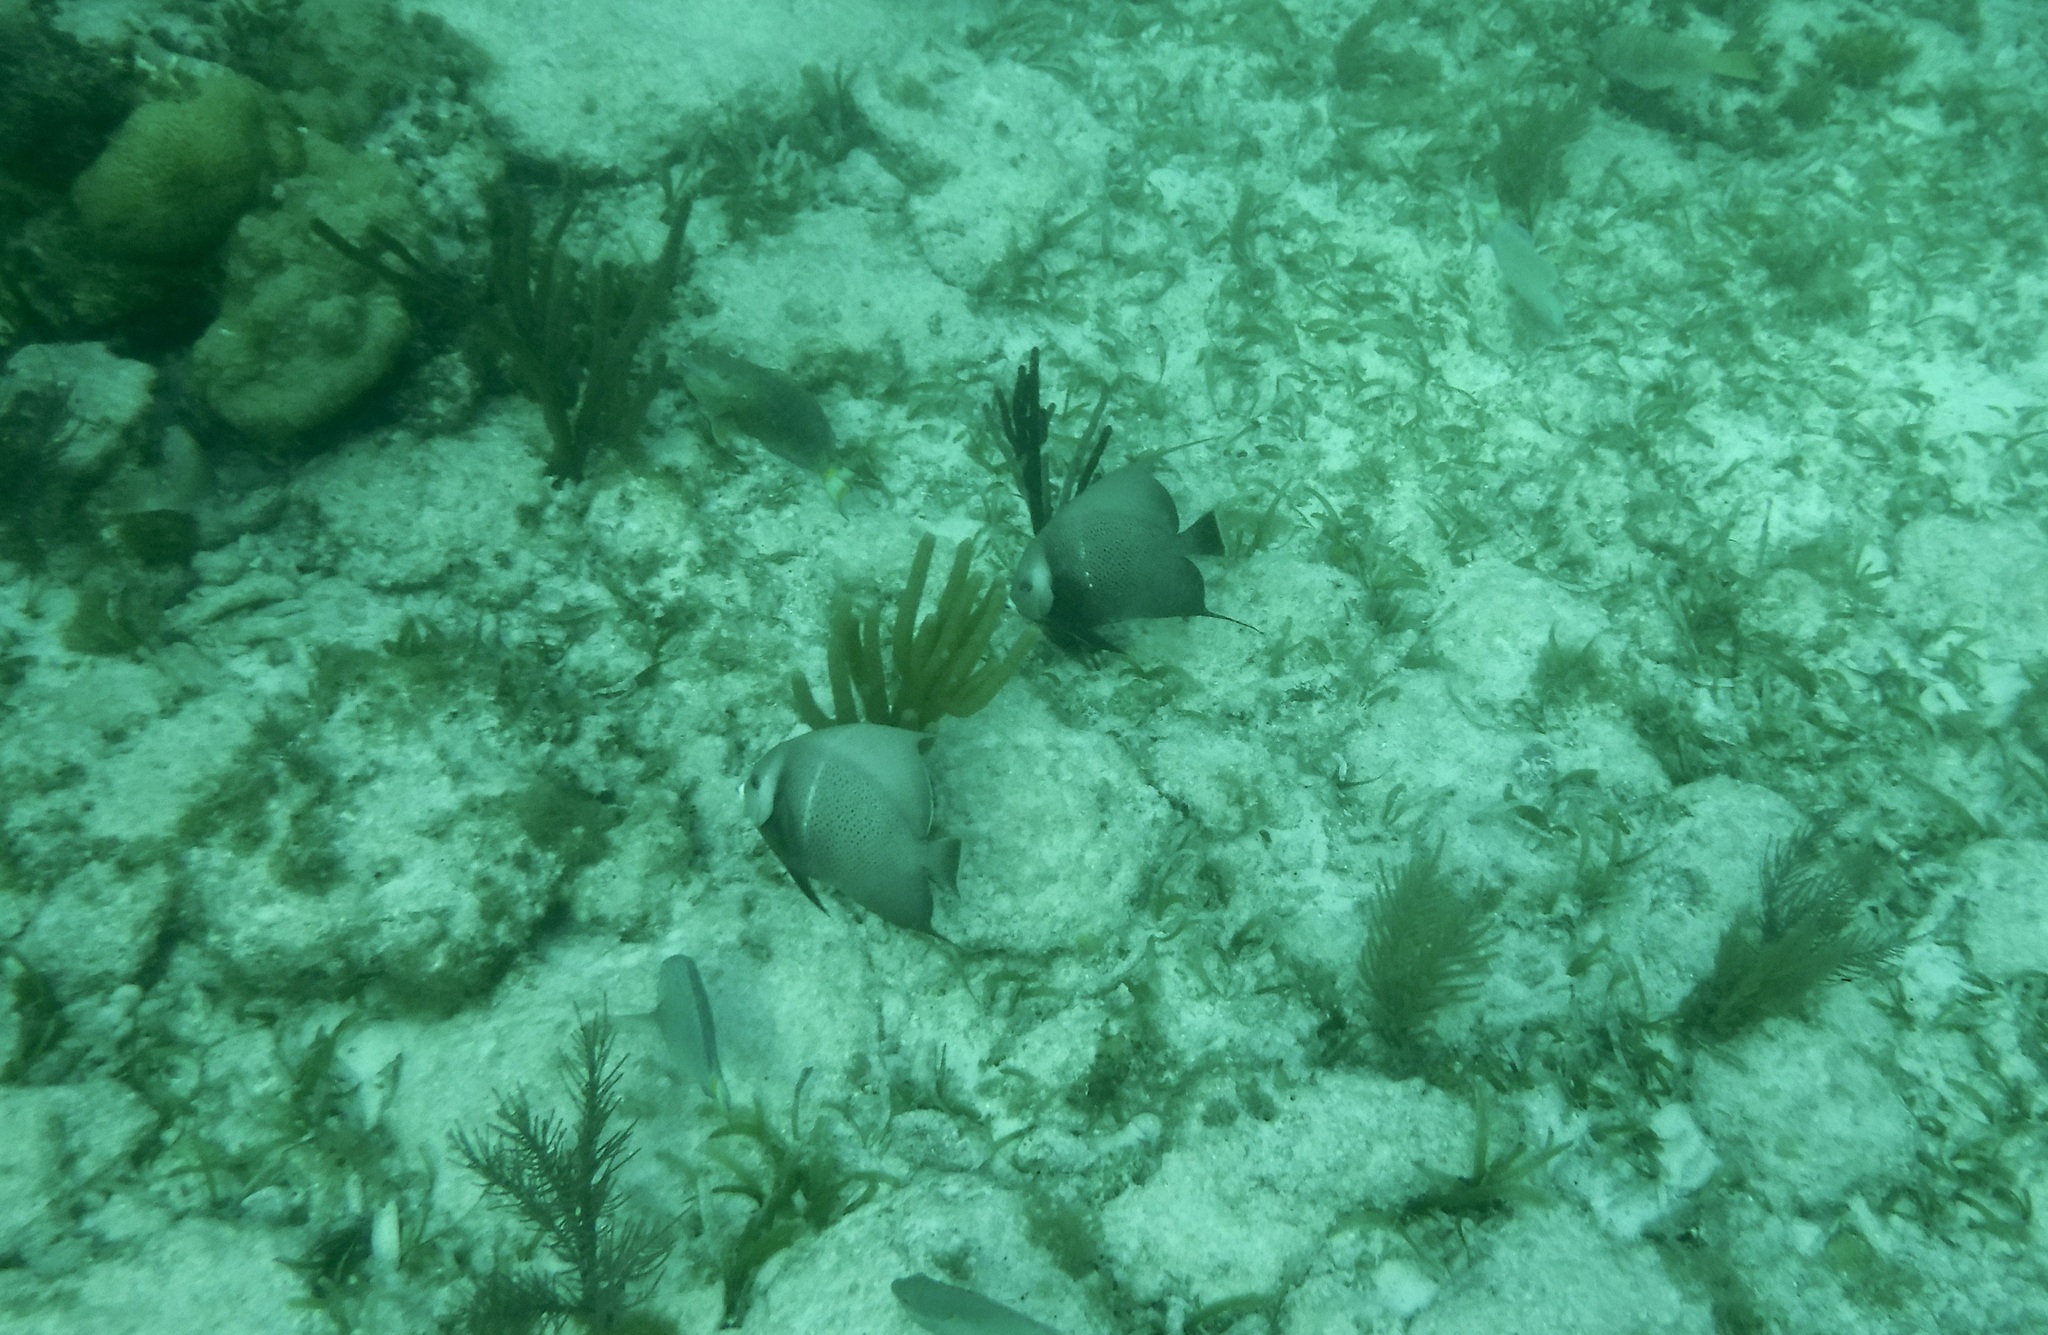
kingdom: Animalia
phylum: Chordata
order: Perciformes
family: Pomacanthidae
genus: Pomacanthus
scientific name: Pomacanthus arcuatus
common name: Gray angelfish
